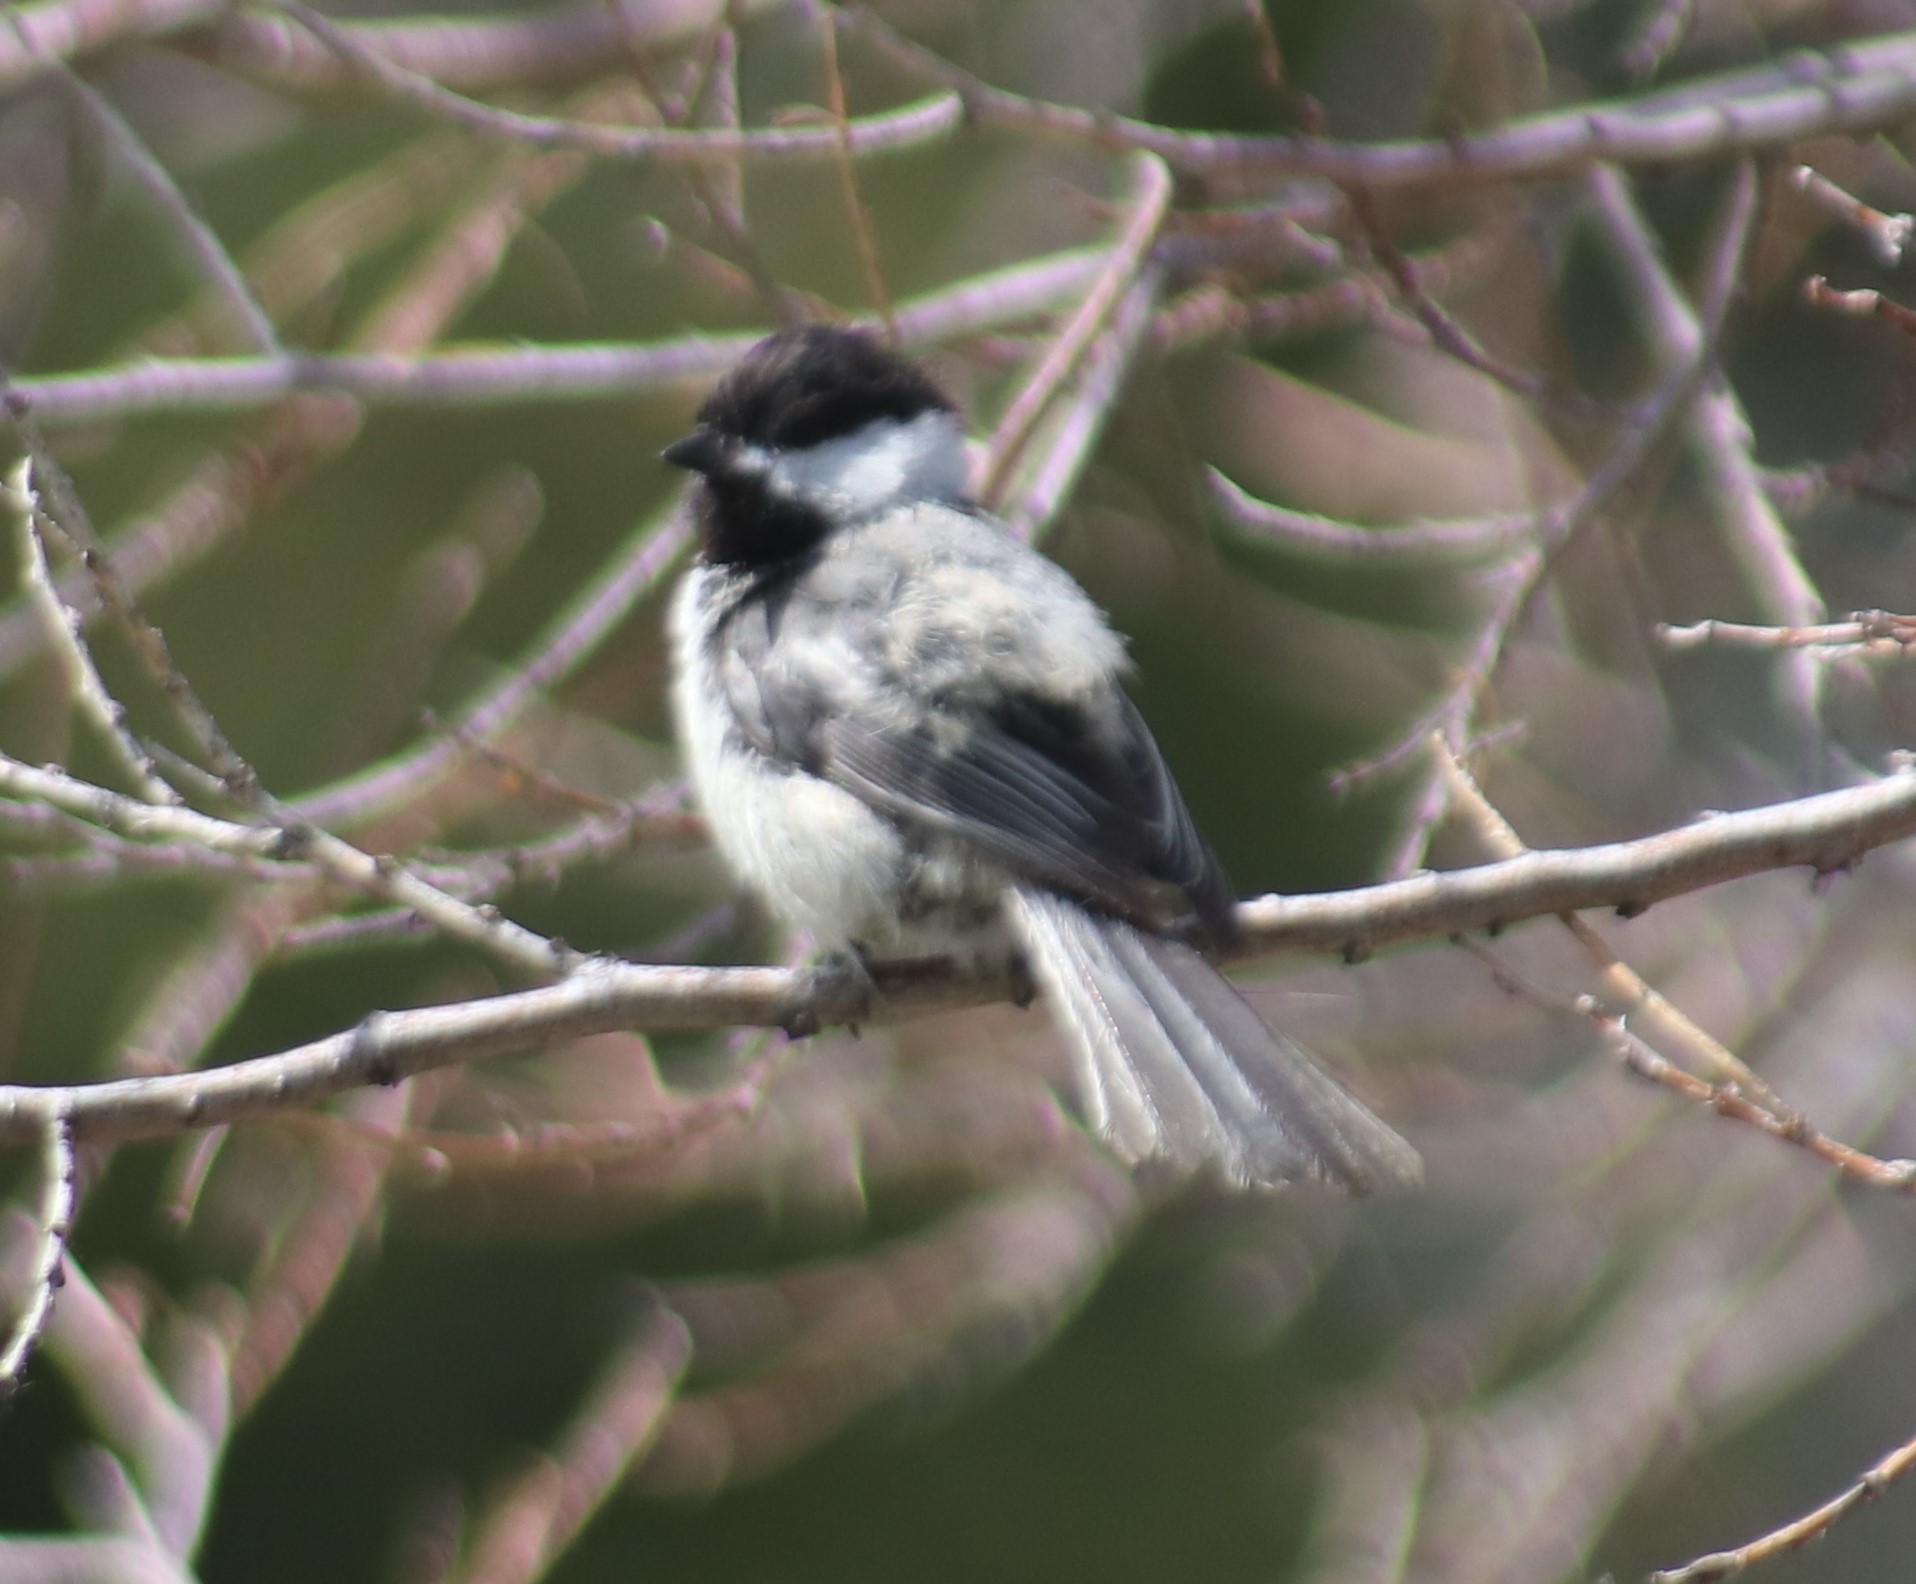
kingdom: Animalia
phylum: Chordata
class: Aves
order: Passeriformes
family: Paridae
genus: Poecile
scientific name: Poecile atricapillus
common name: Black-capped chickadee
